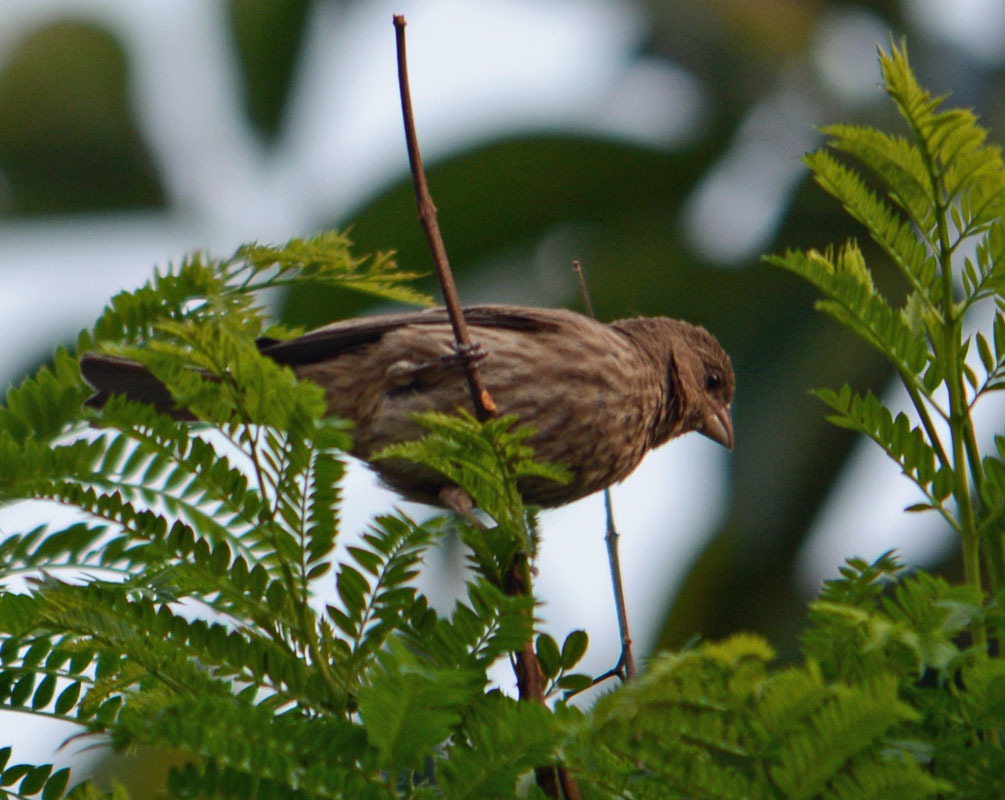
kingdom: Animalia
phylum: Chordata
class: Aves
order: Passeriformes
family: Fringillidae
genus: Haemorhous
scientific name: Haemorhous mexicanus
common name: House finch
